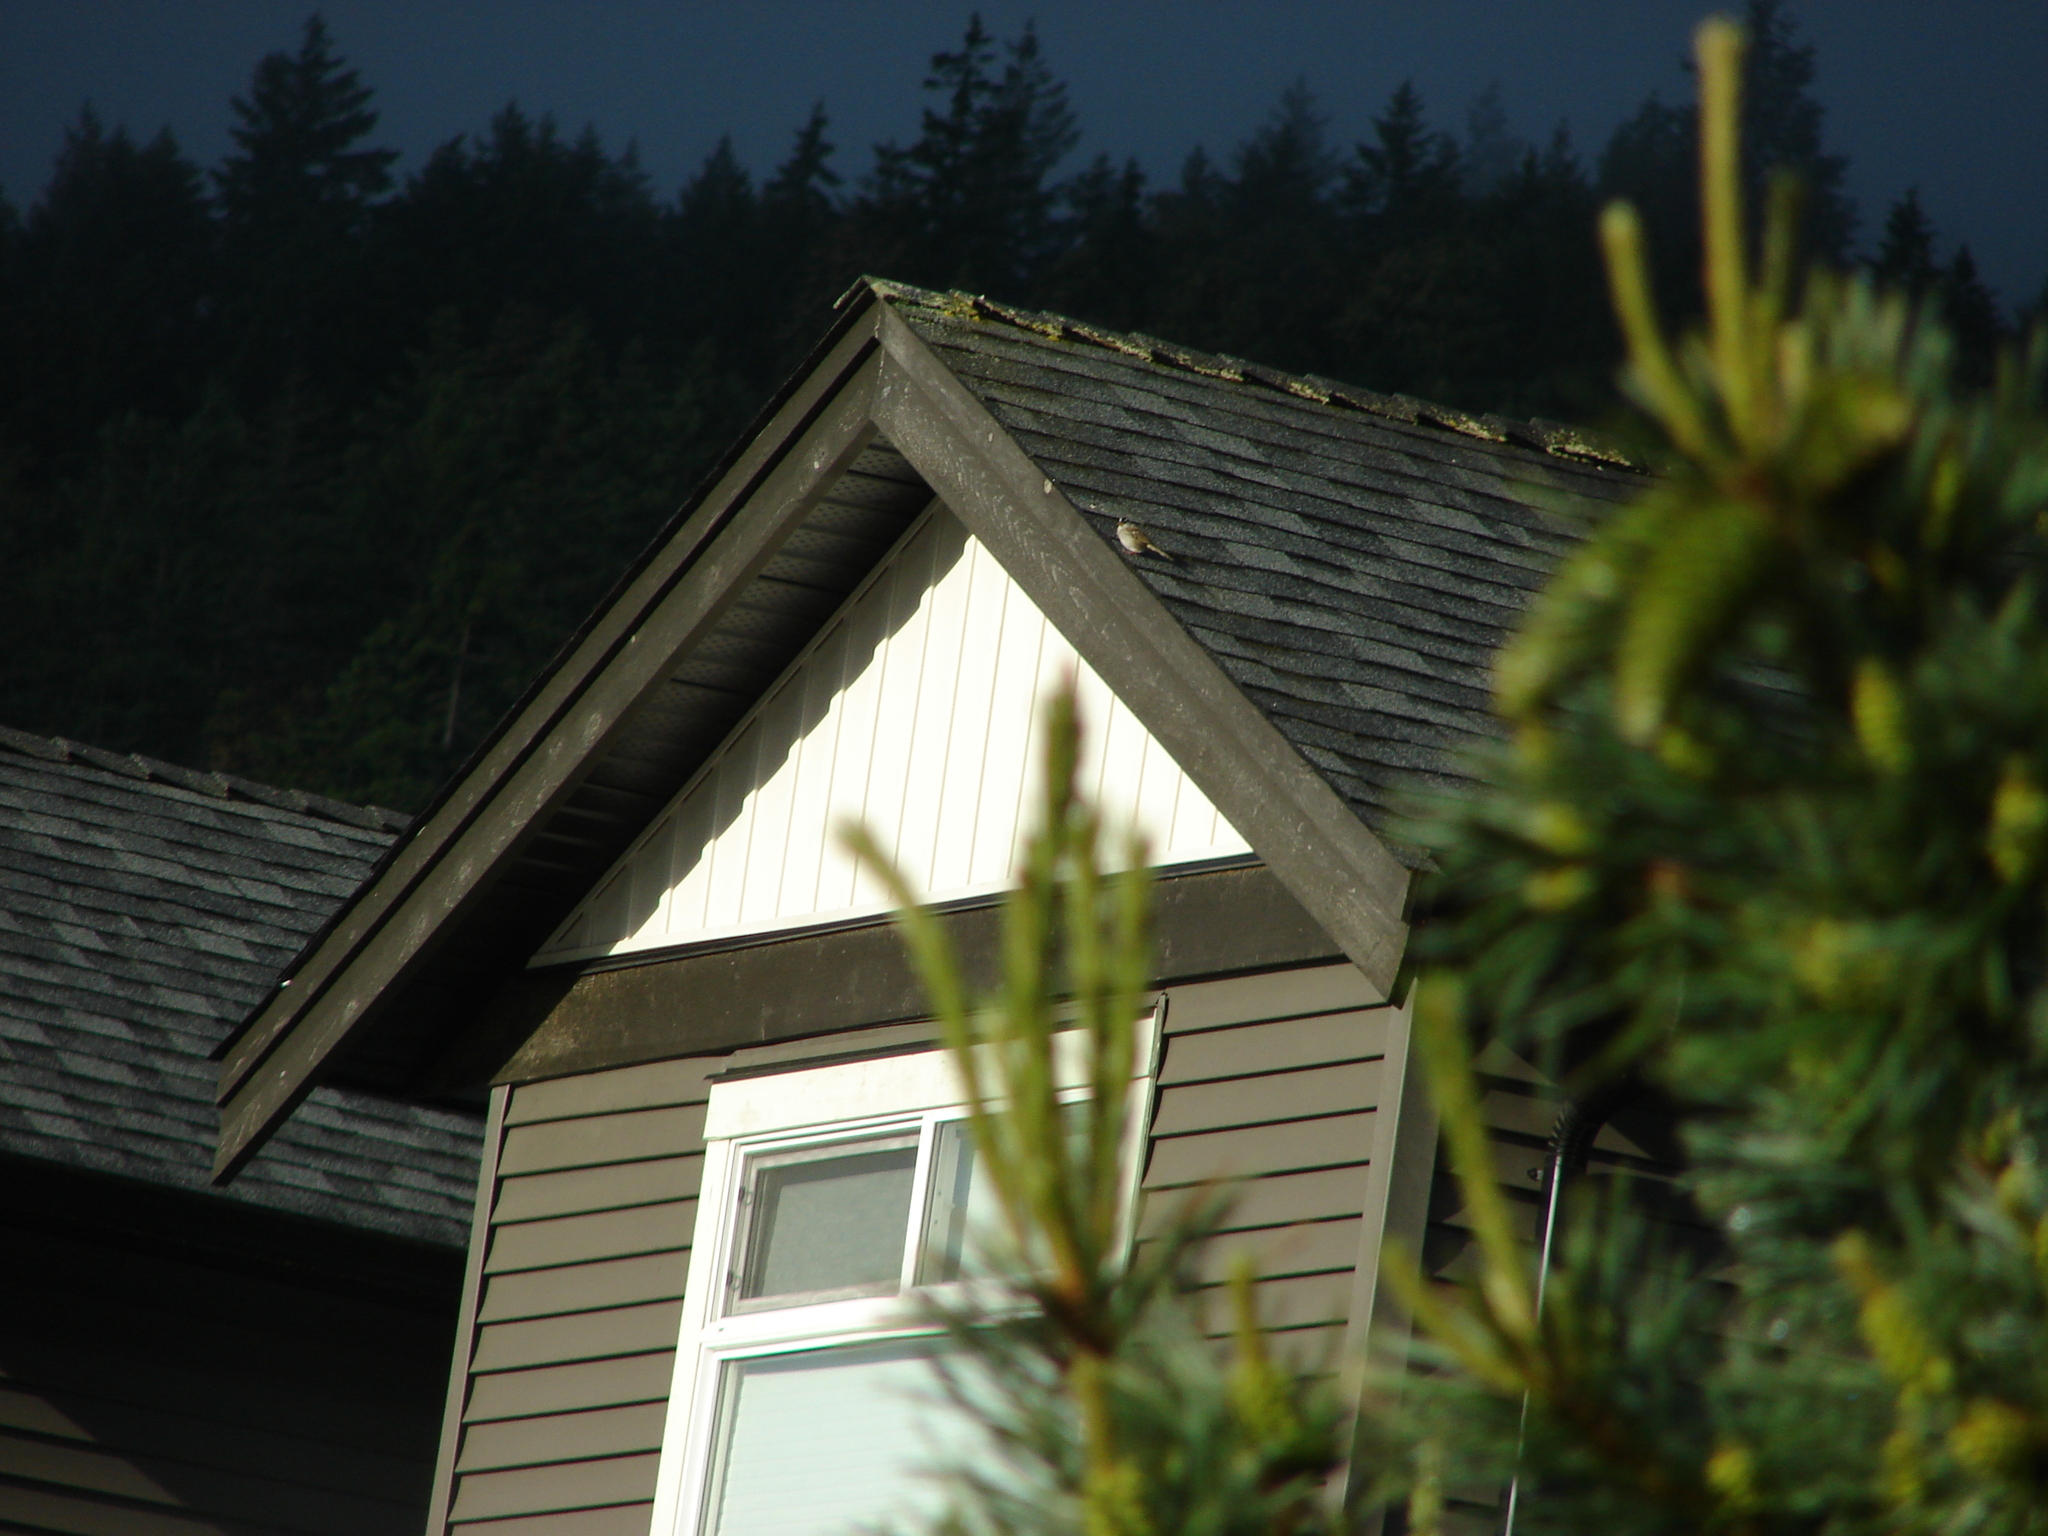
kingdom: Animalia
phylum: Chordata
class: Aves
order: Passeriformes
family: Passerellidae
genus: Zonotrichia
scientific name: Zonotrichia leucophrys
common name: White-crowned sparrow
